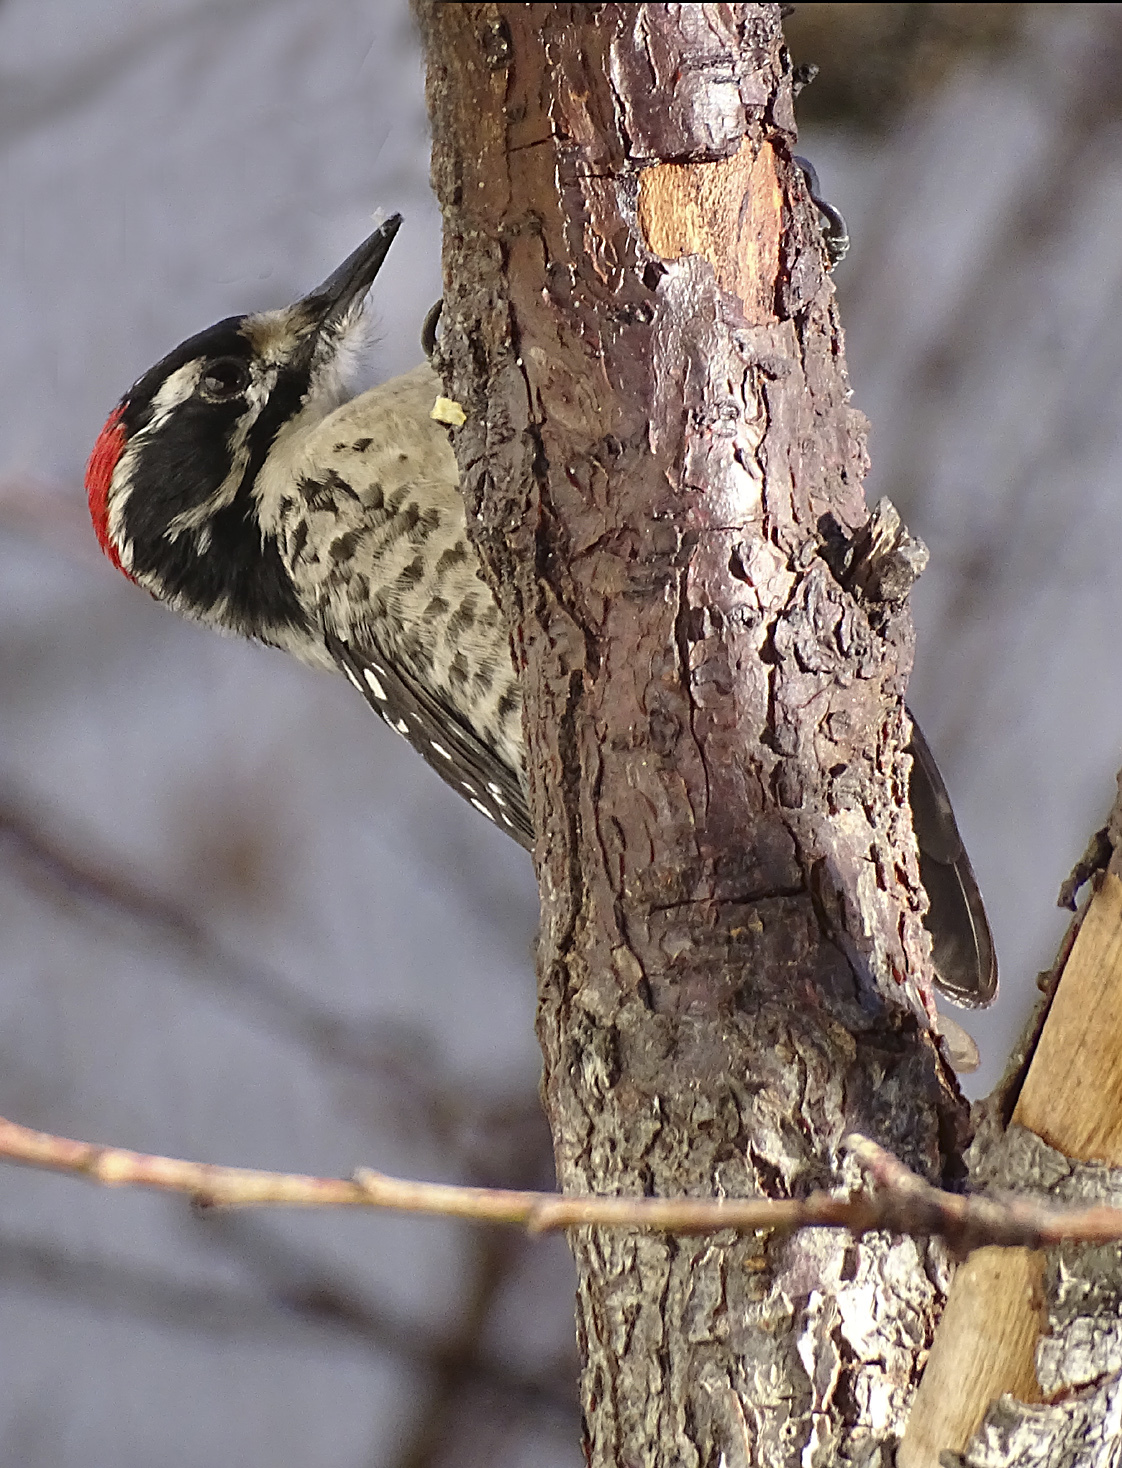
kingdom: Animalia
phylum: Chordata
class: Aves
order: Piciformes
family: Picidae
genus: Dryobates
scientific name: Dryobates nuttallii
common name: Nuttall's woodpecker
